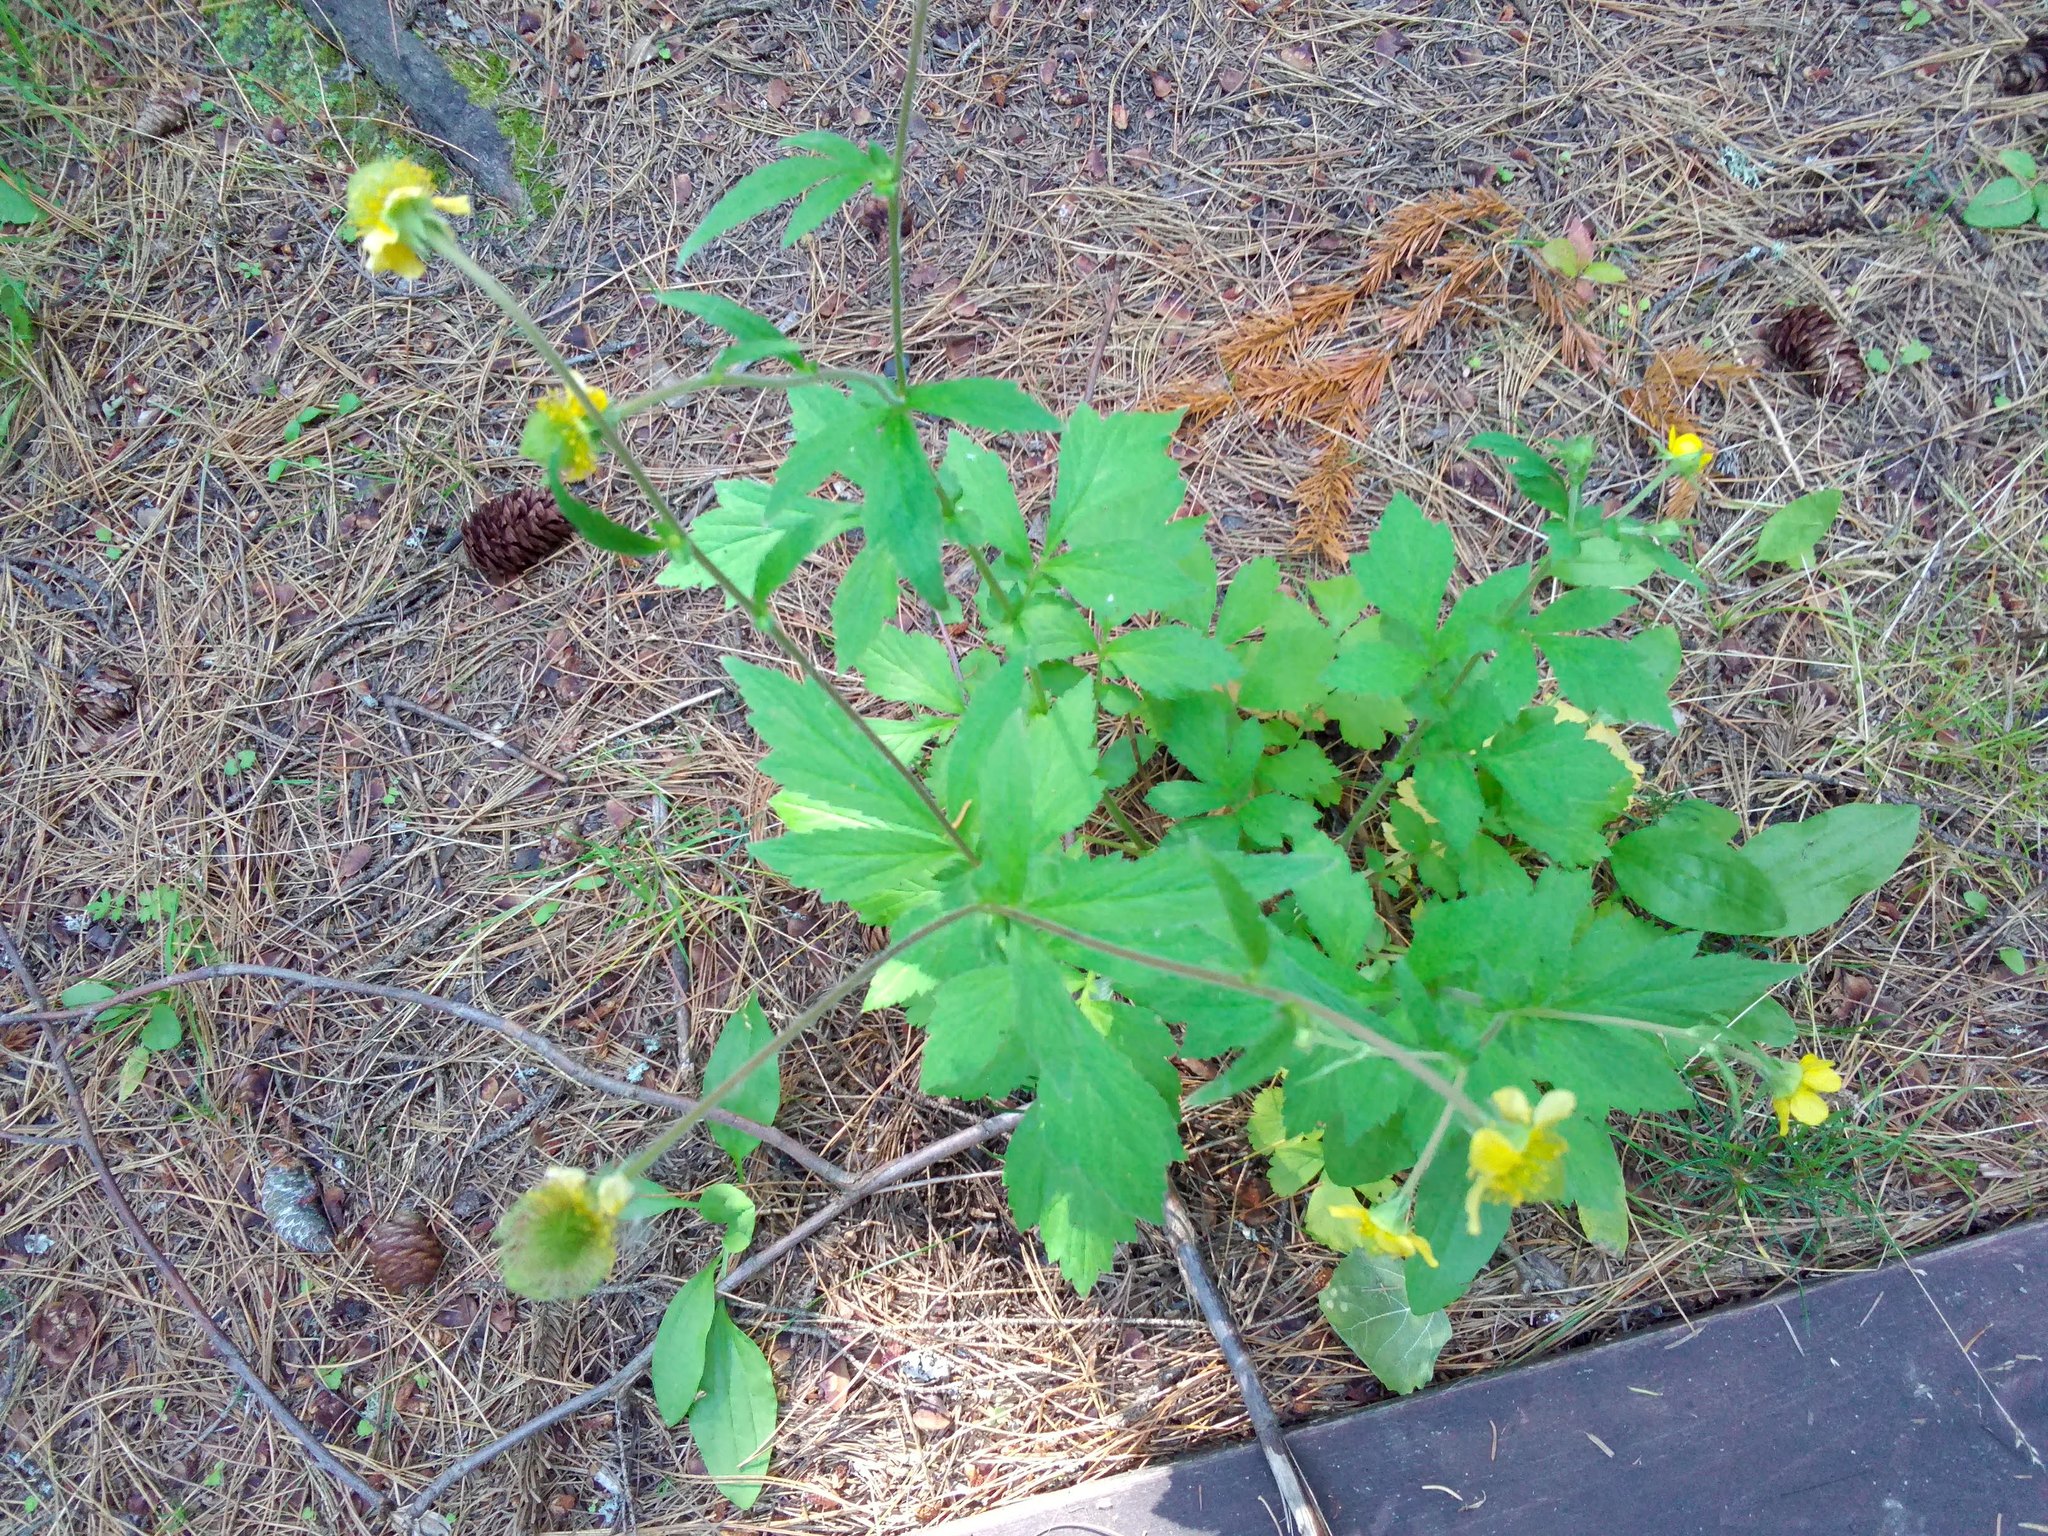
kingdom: Plantae
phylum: Tracheophyta
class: Magnoliopsida
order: Rosales
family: Rosaceae
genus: Geum
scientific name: Geum aleppicum
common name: Yellow avens
